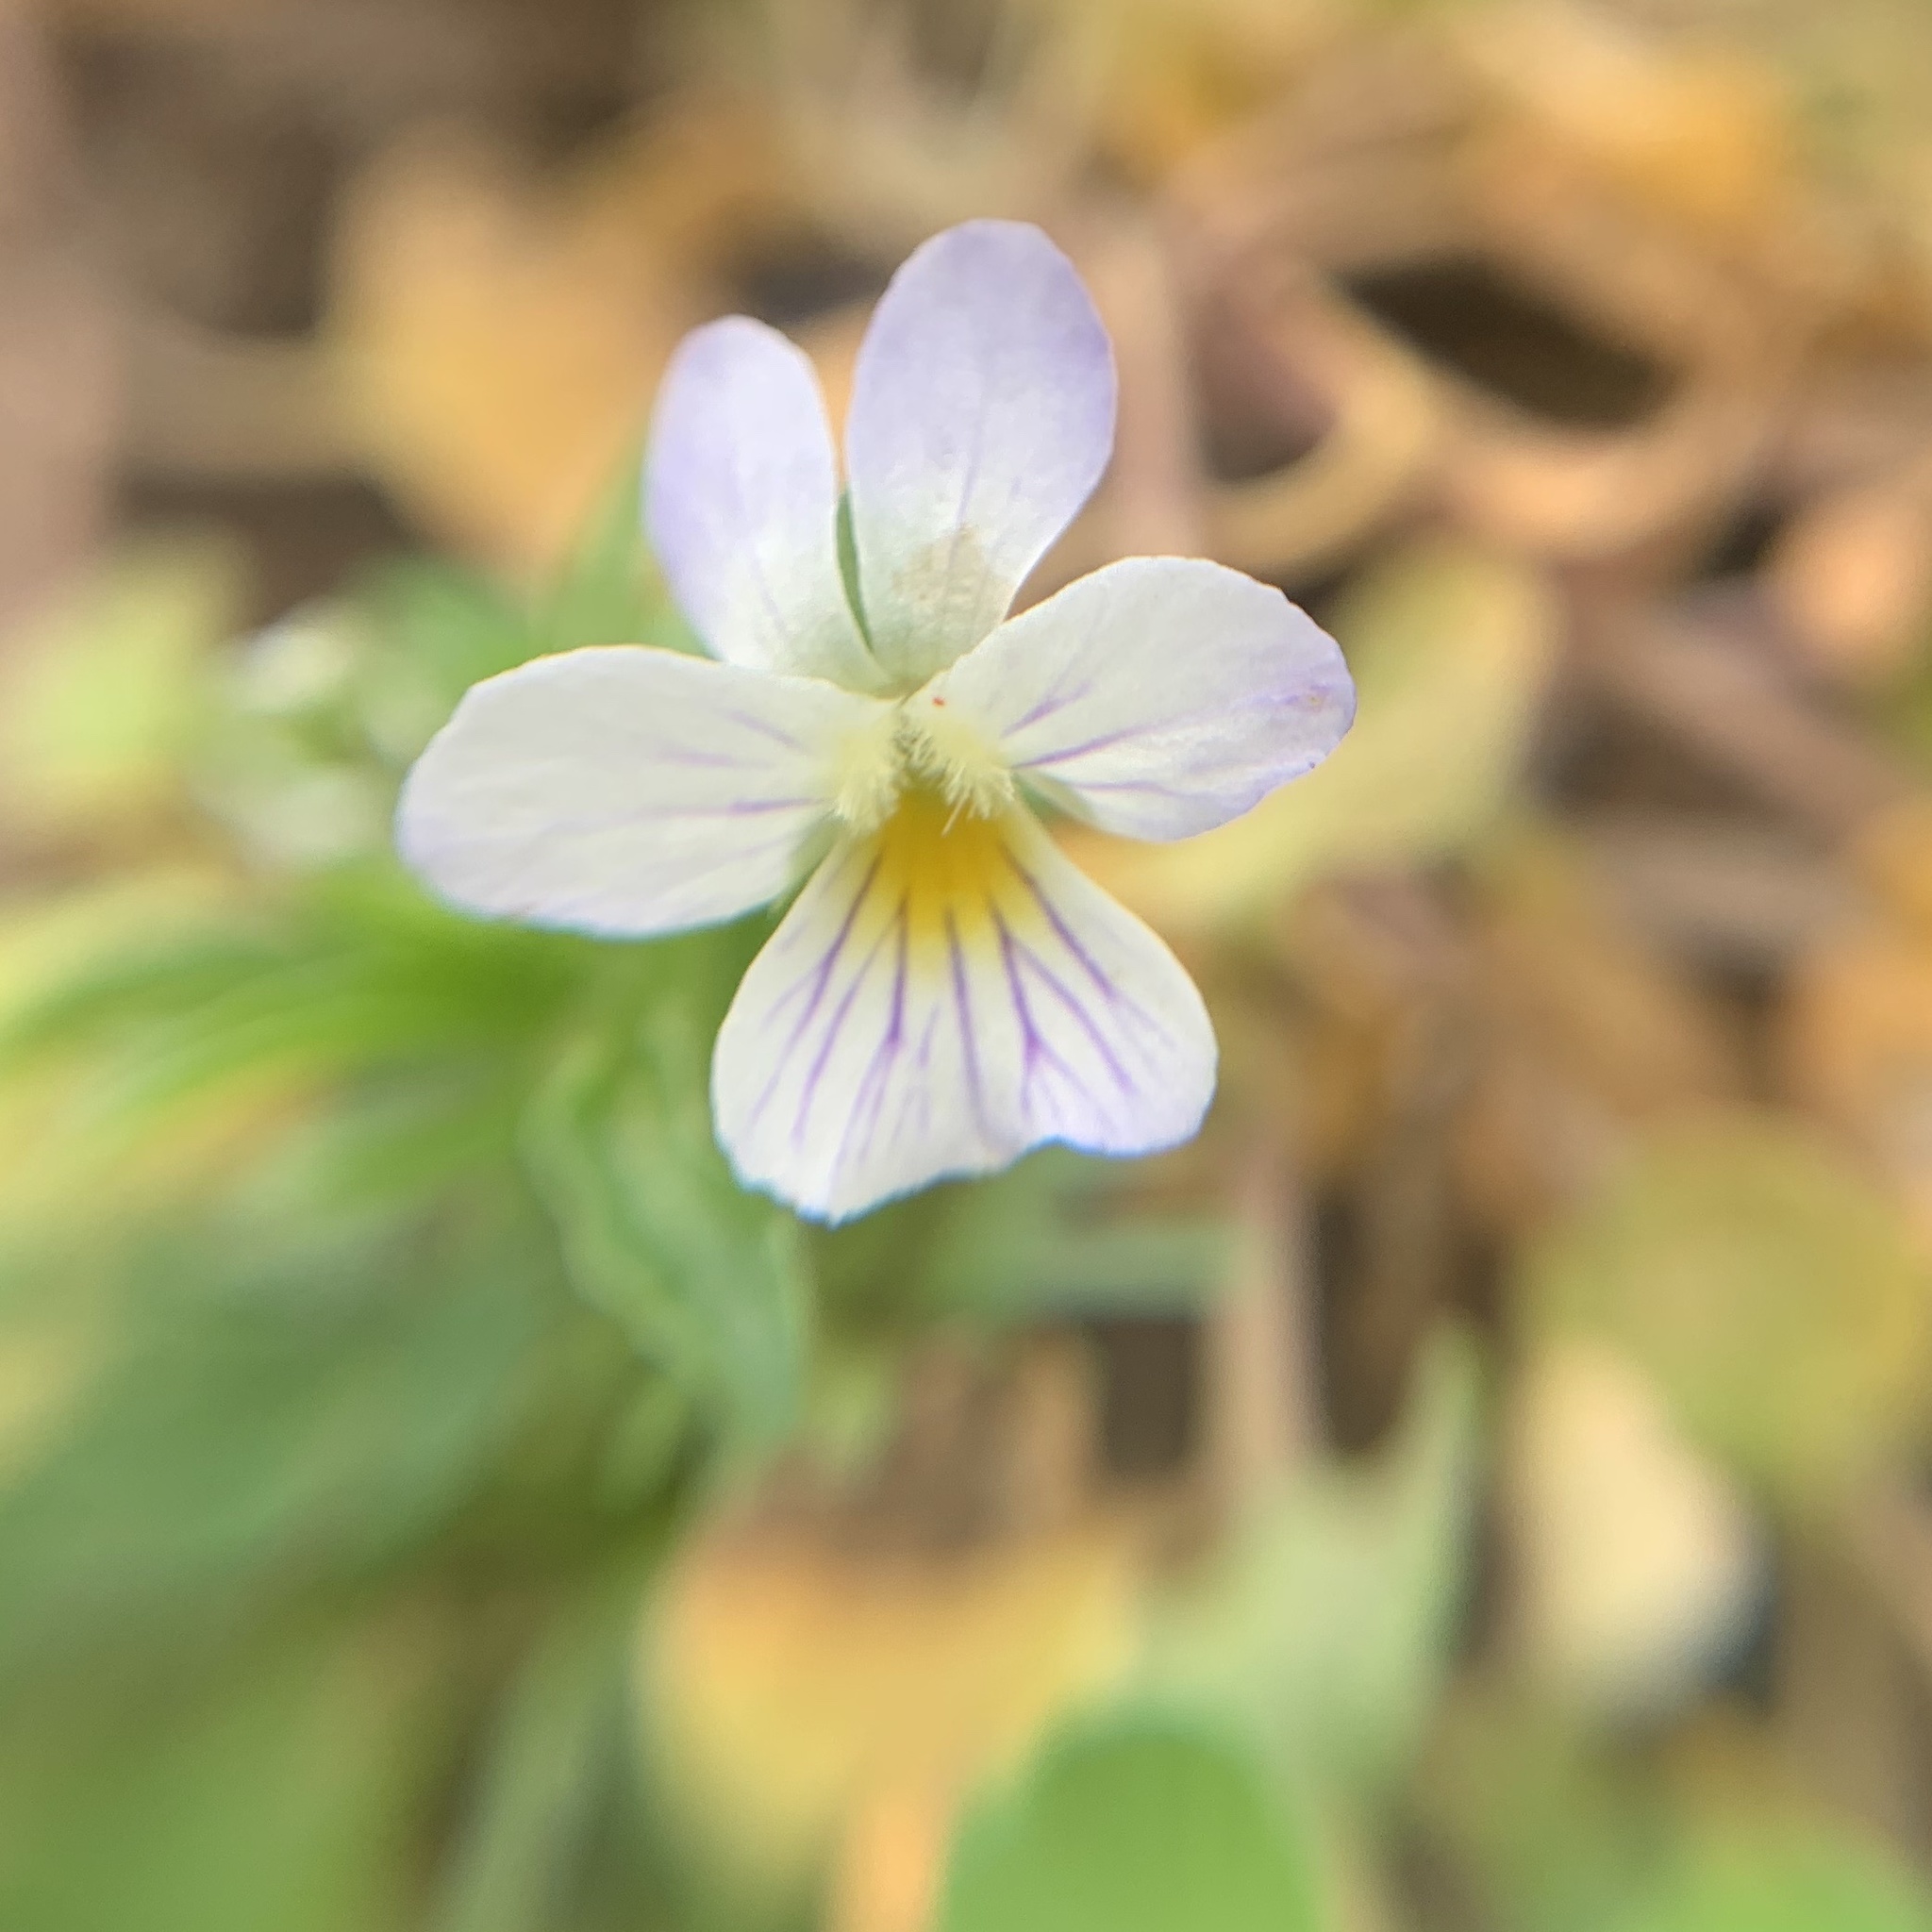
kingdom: Plantae
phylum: Tracheophyta
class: Magnoliopsida
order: Malpighiales
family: Violaceae
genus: Viola
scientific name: Viola rafinesquei
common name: American field pansy
